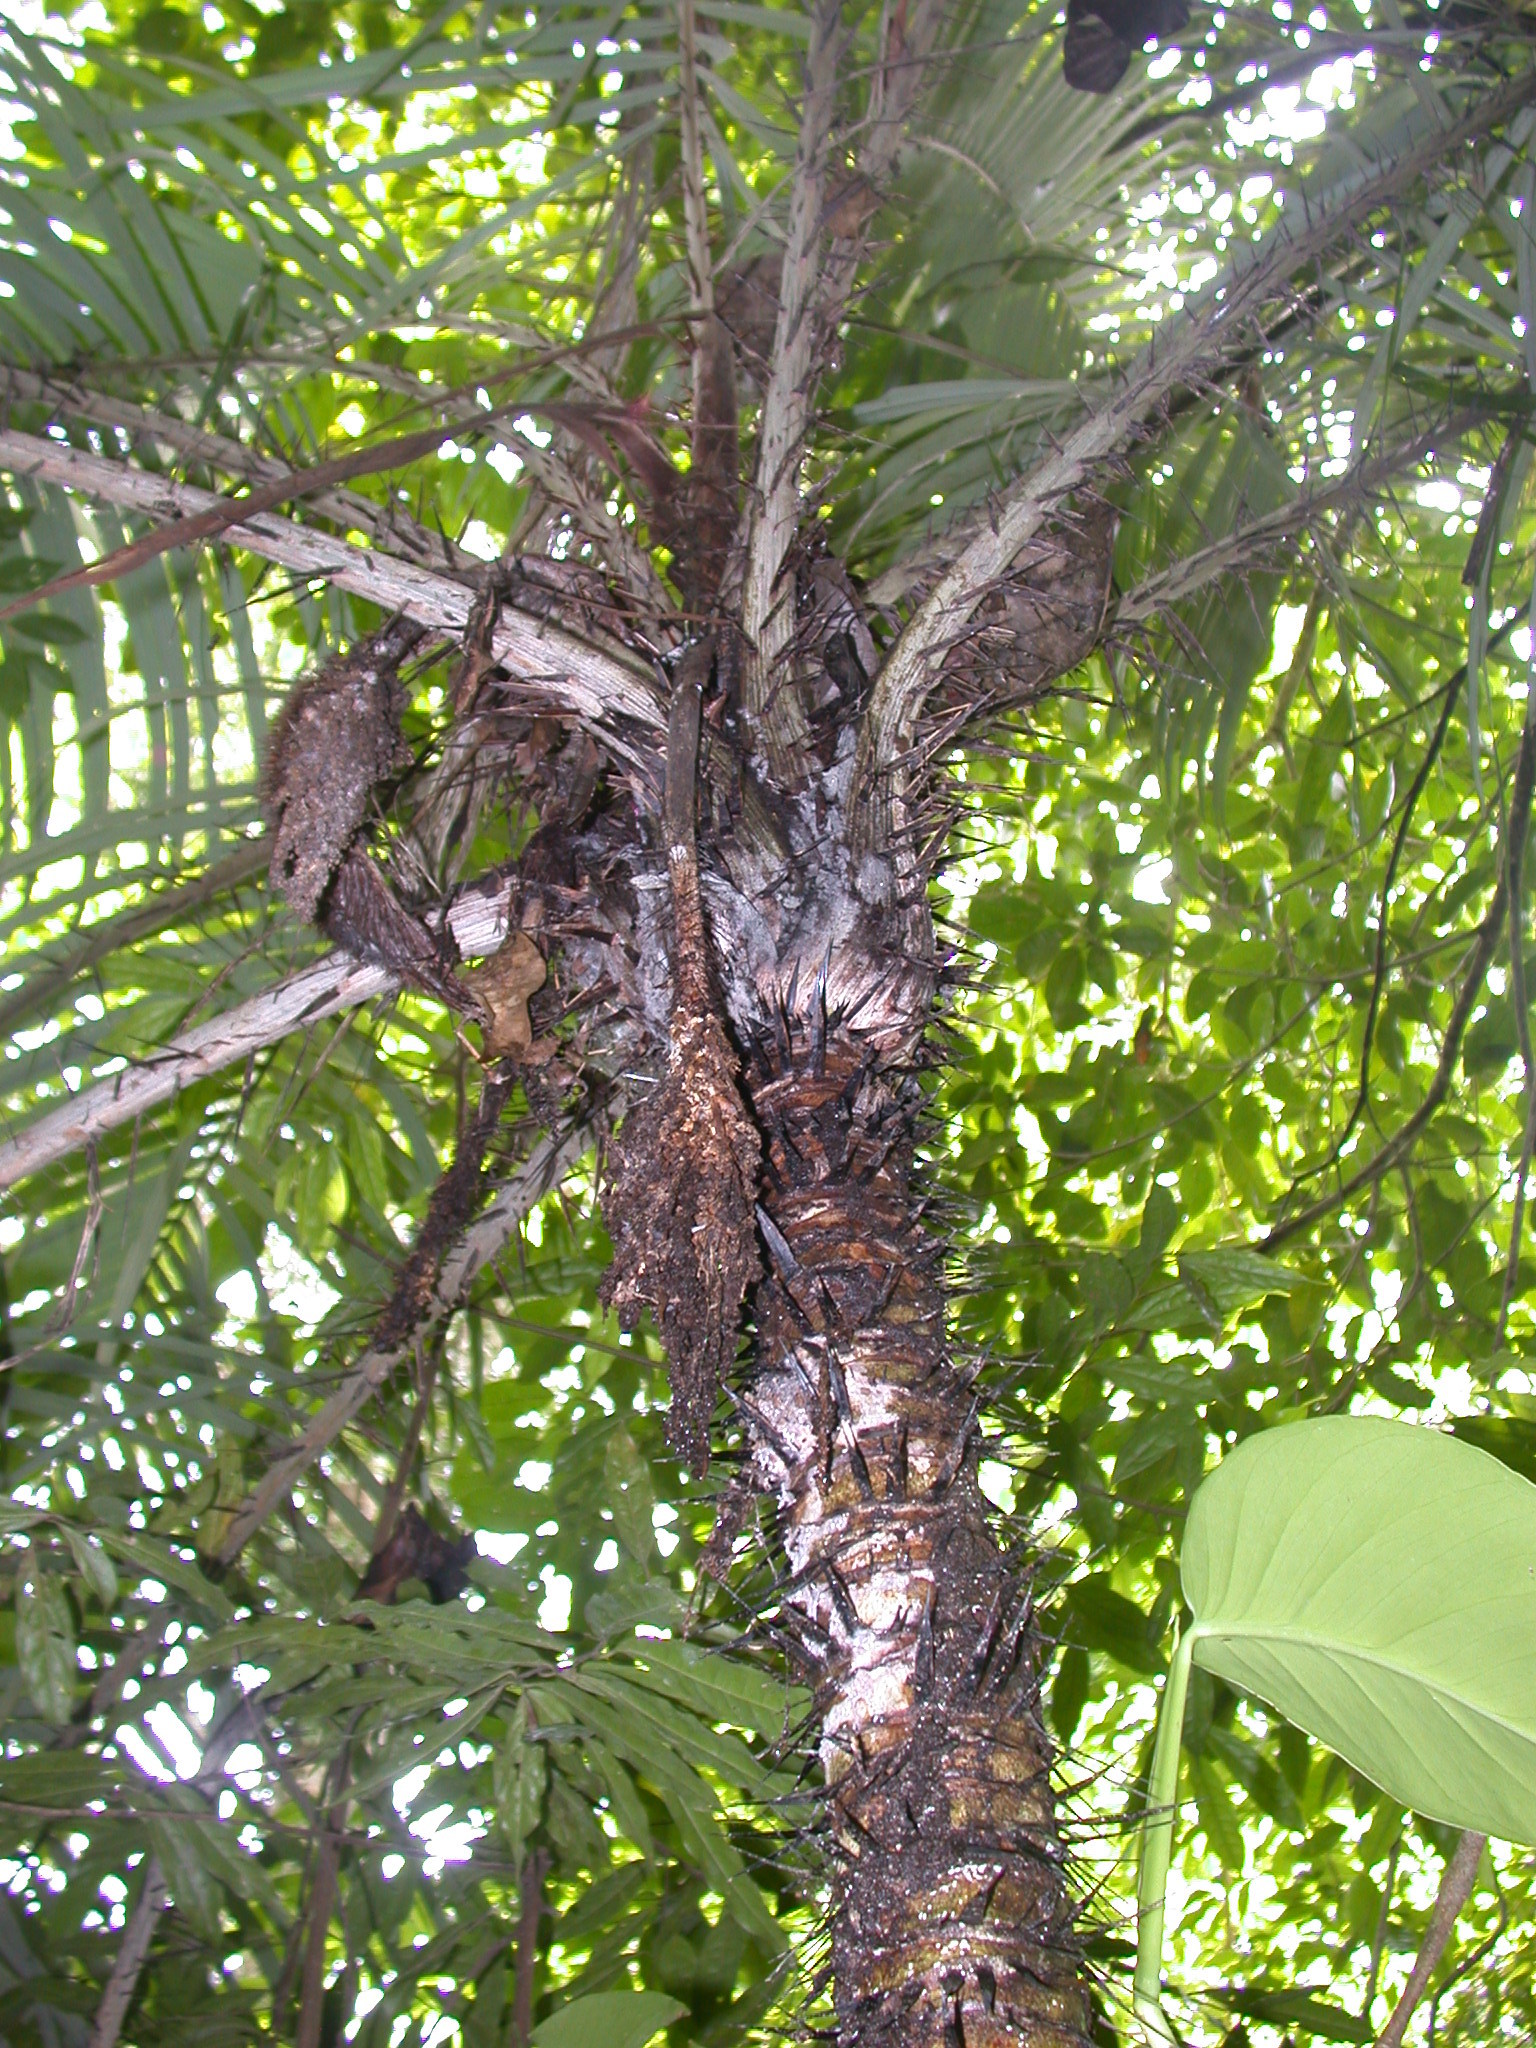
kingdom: Plantae
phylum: Tracheophyta
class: Liliopsida
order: Arecales
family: Arecaceae
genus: Astrocaryum
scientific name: Astrocaryum mexicanum
